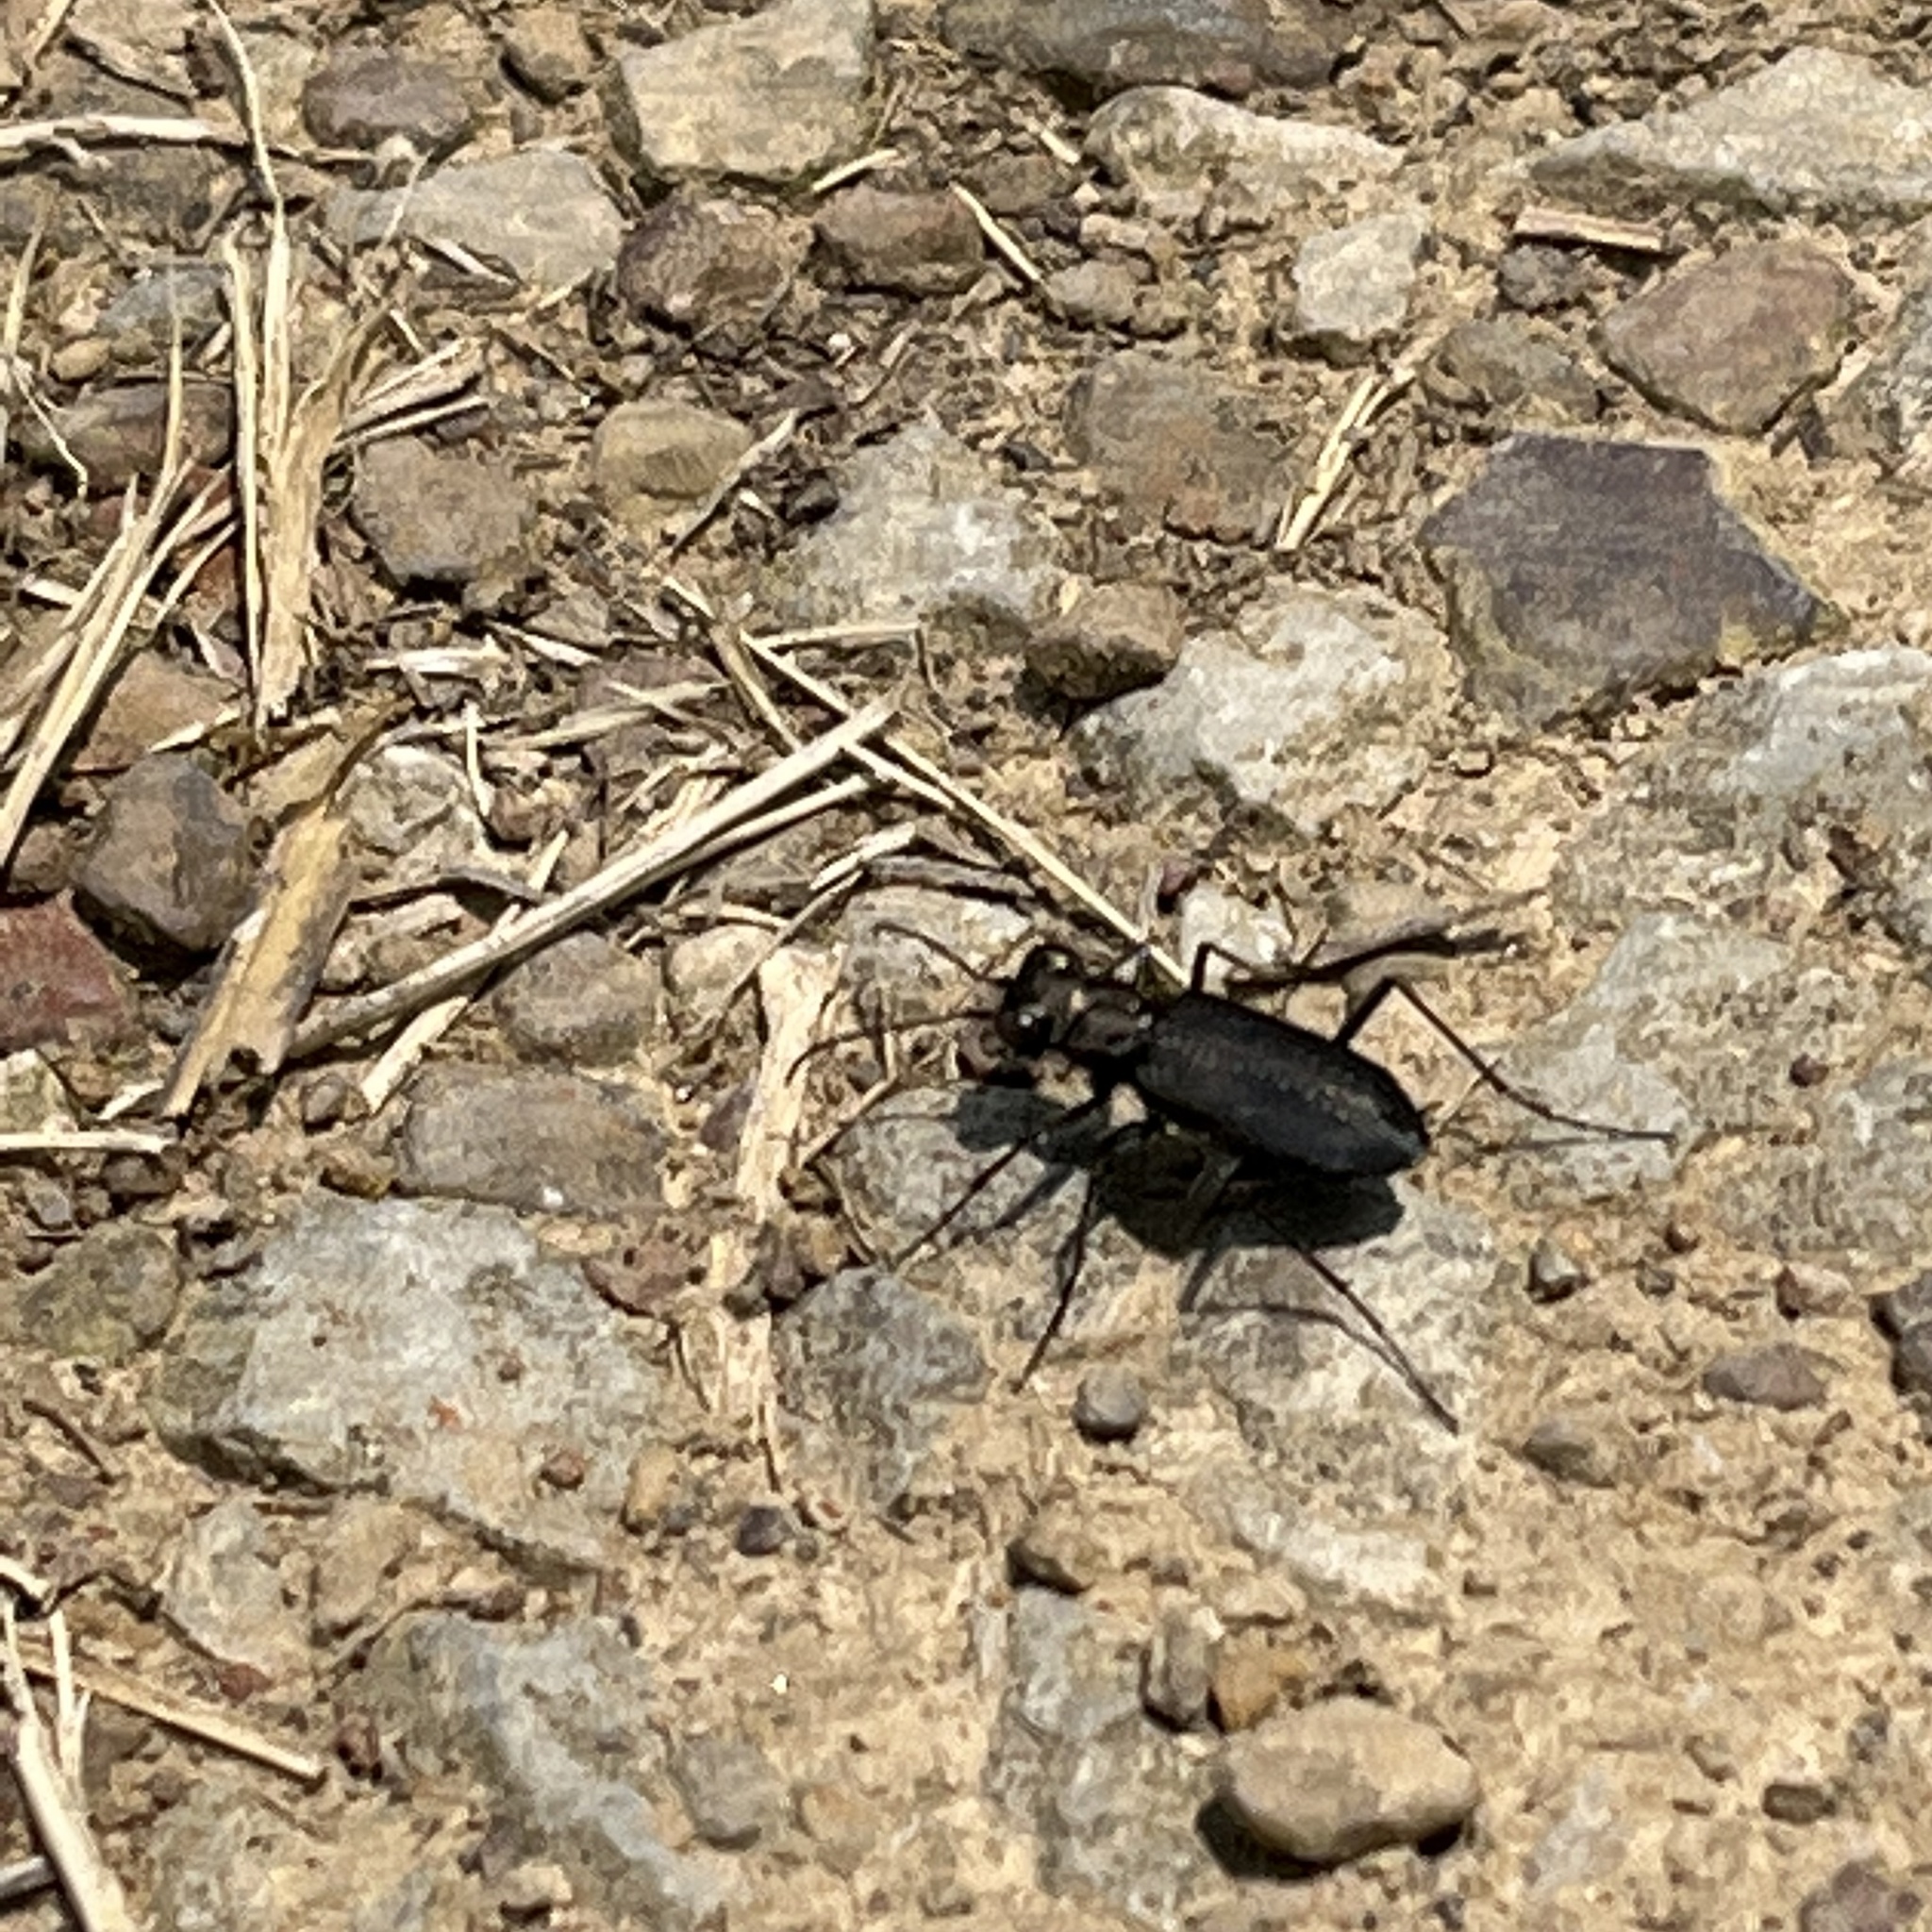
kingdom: Animalia
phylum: Arthropoda
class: Insecta
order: Coleoptera
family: Carabidae
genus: Cicindela
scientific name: Cicindela punctulata
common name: Punctured tiger beetle
